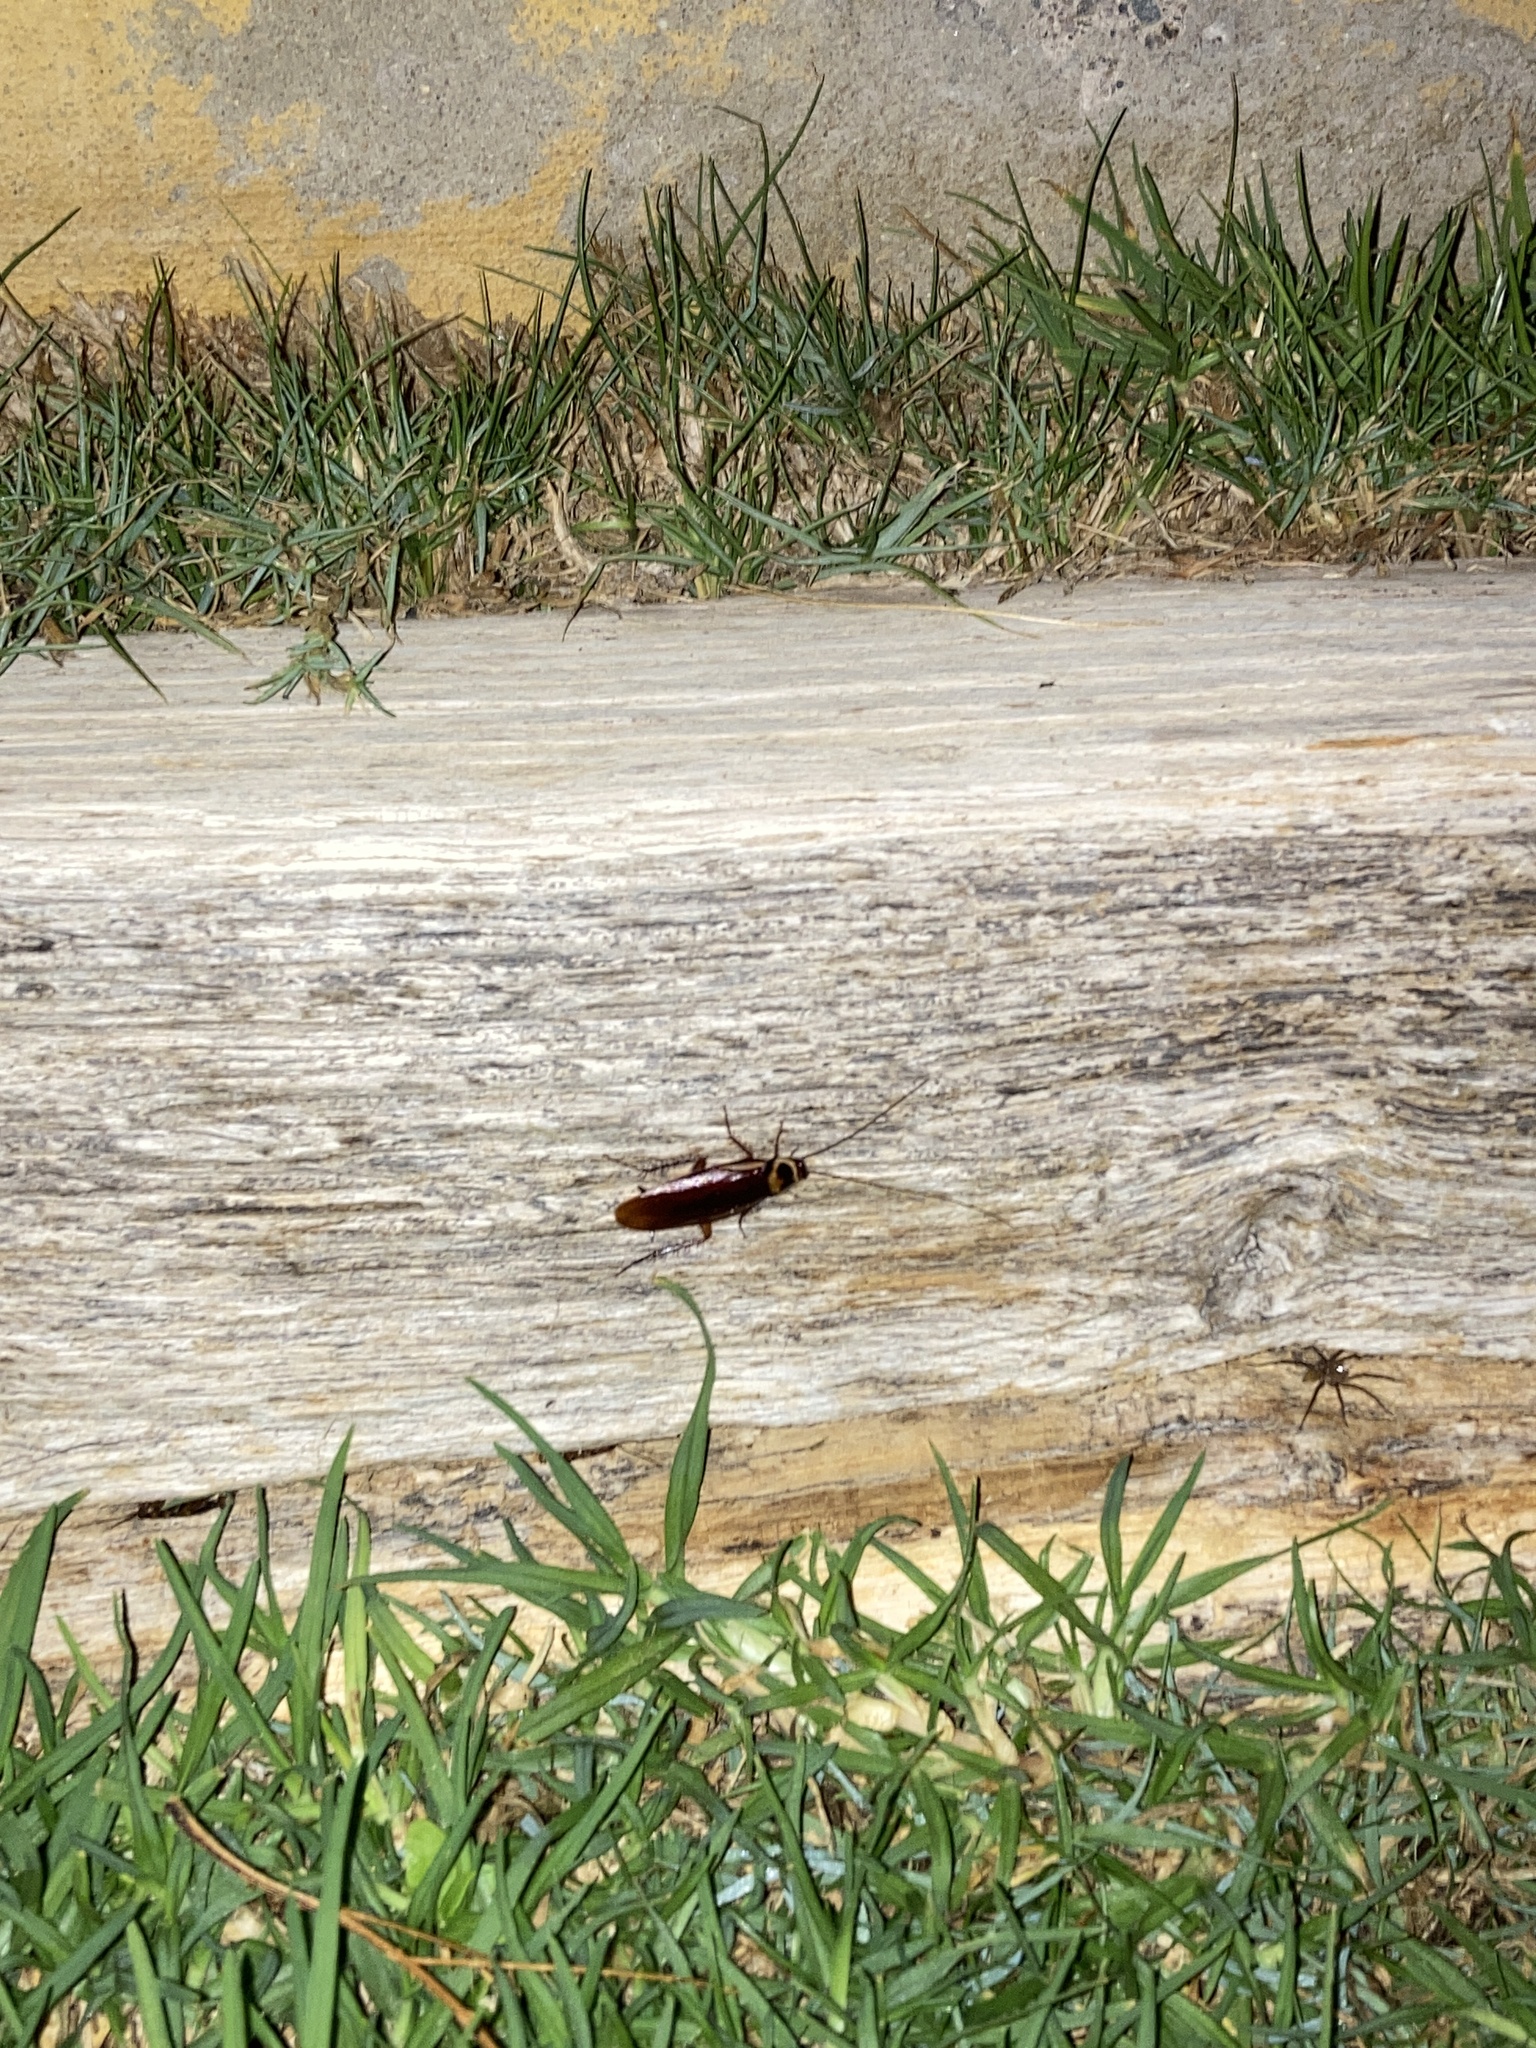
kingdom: Animalia
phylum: Arthropoda
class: Insecta
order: Blattodea
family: Blattidae
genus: Periplaneta
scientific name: Periplaneta australasiae
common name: Australian cockroach
